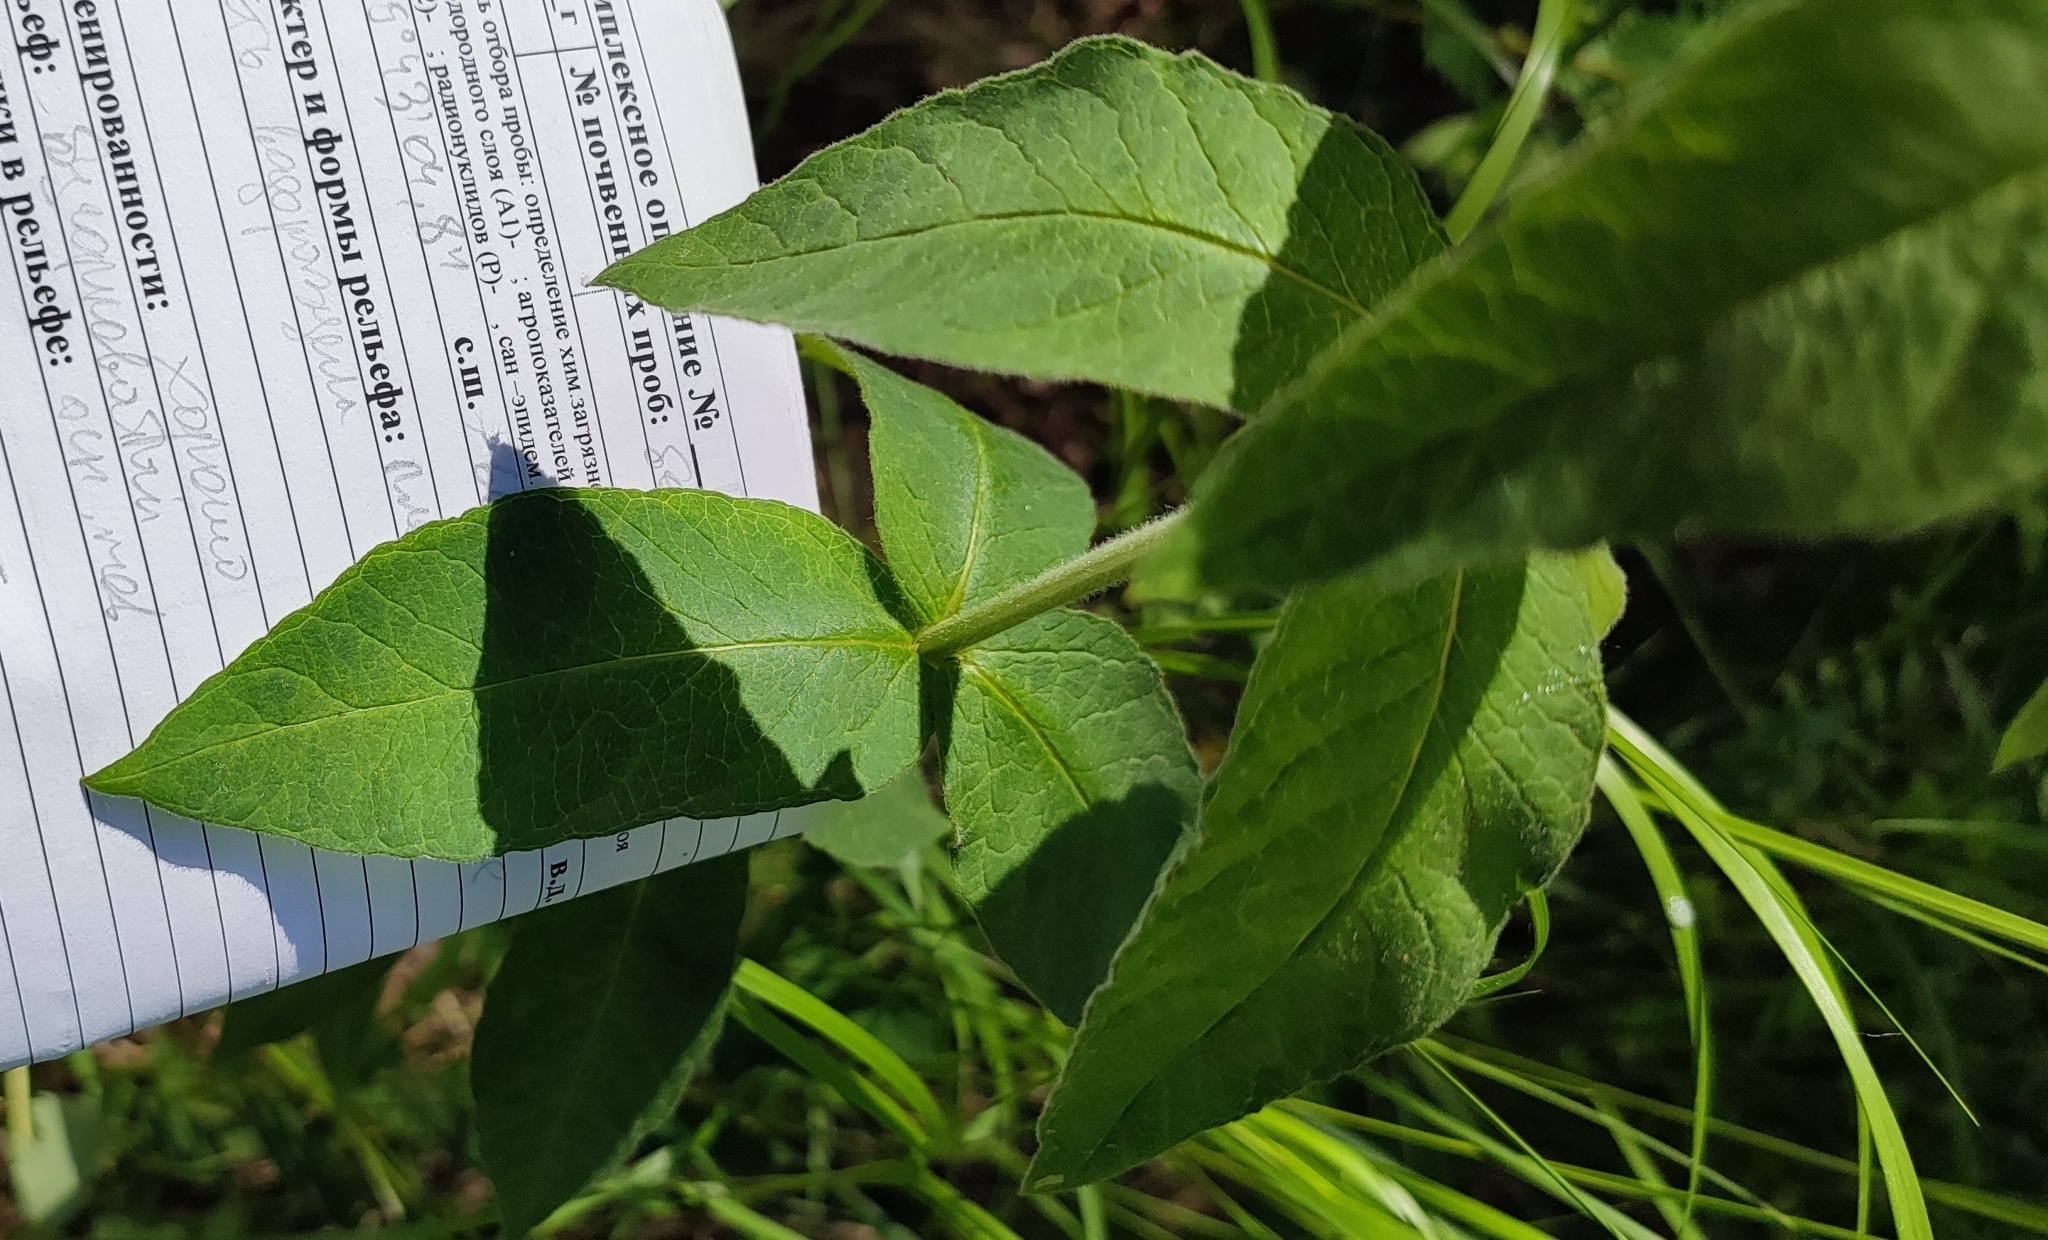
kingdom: Plantae
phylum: Tracheophyta
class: Magnoliopsida
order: Ericales
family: Primulaceae
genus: Lysimachia
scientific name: Lysimachia vulgaris
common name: Yellow loosestrife
